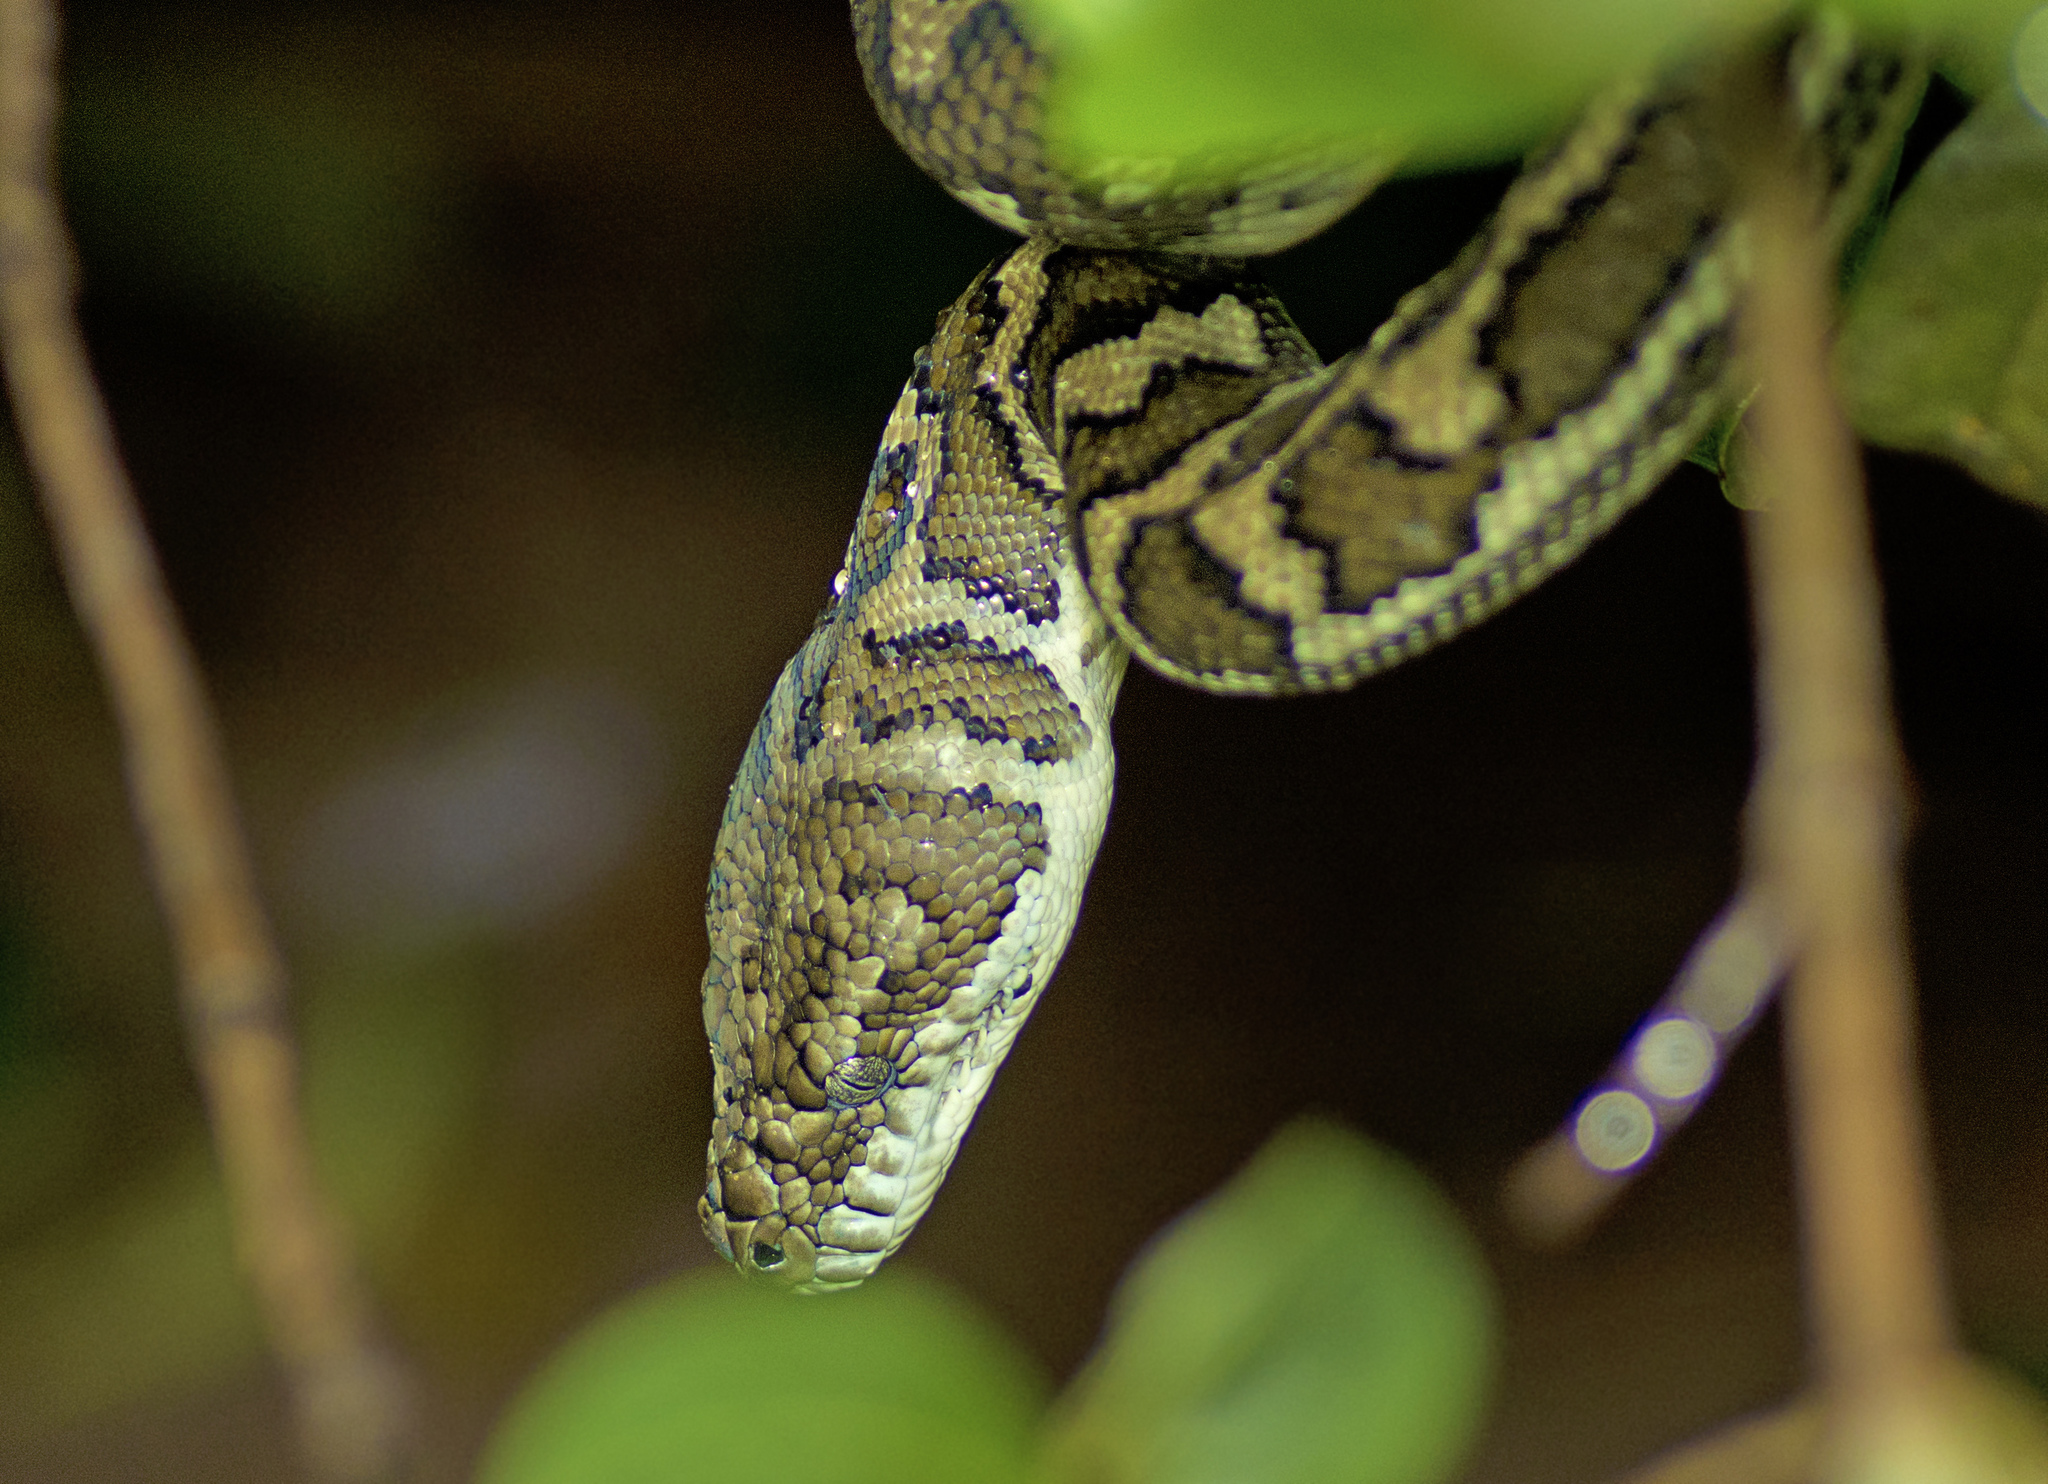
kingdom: Animalia
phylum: Chordata
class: Squamata
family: Pythonidae
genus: Morelia
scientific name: Morelia spilota
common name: Carpet python
